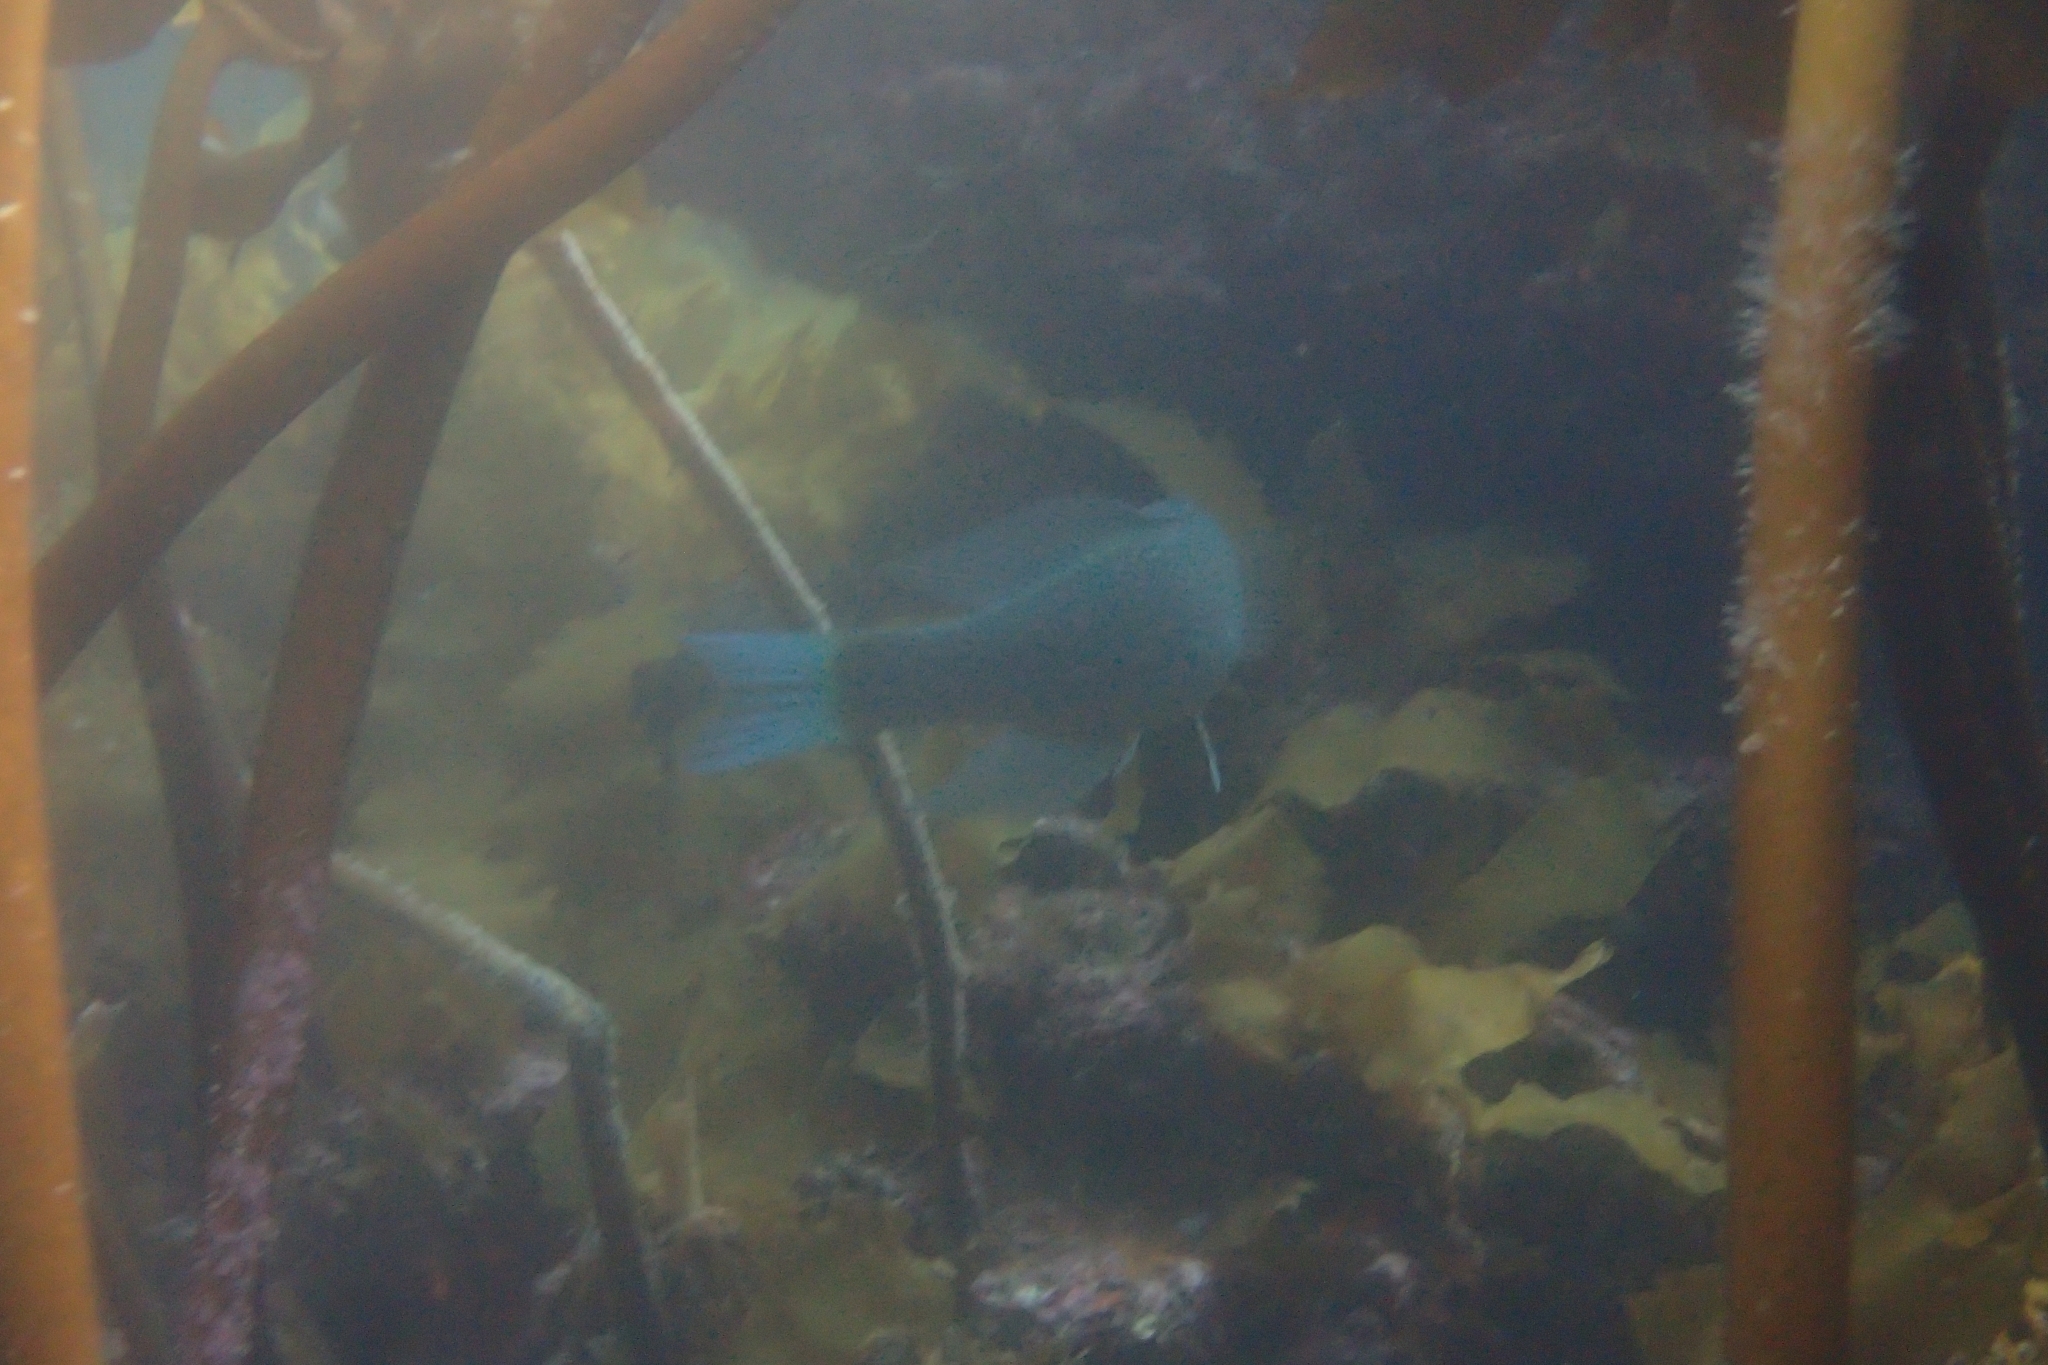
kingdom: Animalia
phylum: Chordata
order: Perciformes
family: Odacidae
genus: Odax
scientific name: Odax pullus
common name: Butterfish
